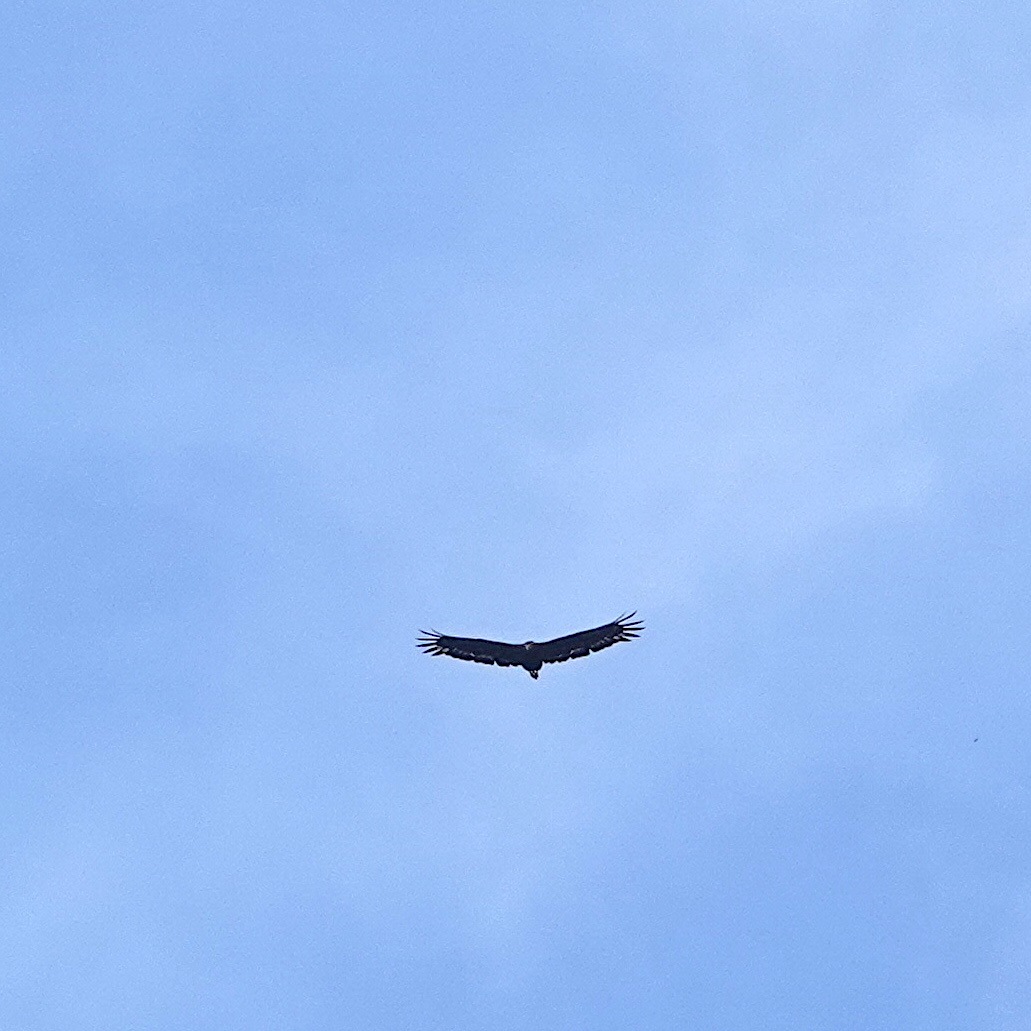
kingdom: Animalia
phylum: Chordata
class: Aves
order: Accipitriformes
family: Accipitridae
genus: Spilornis
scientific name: Spilornis cheela
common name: Crested serpent eagle
